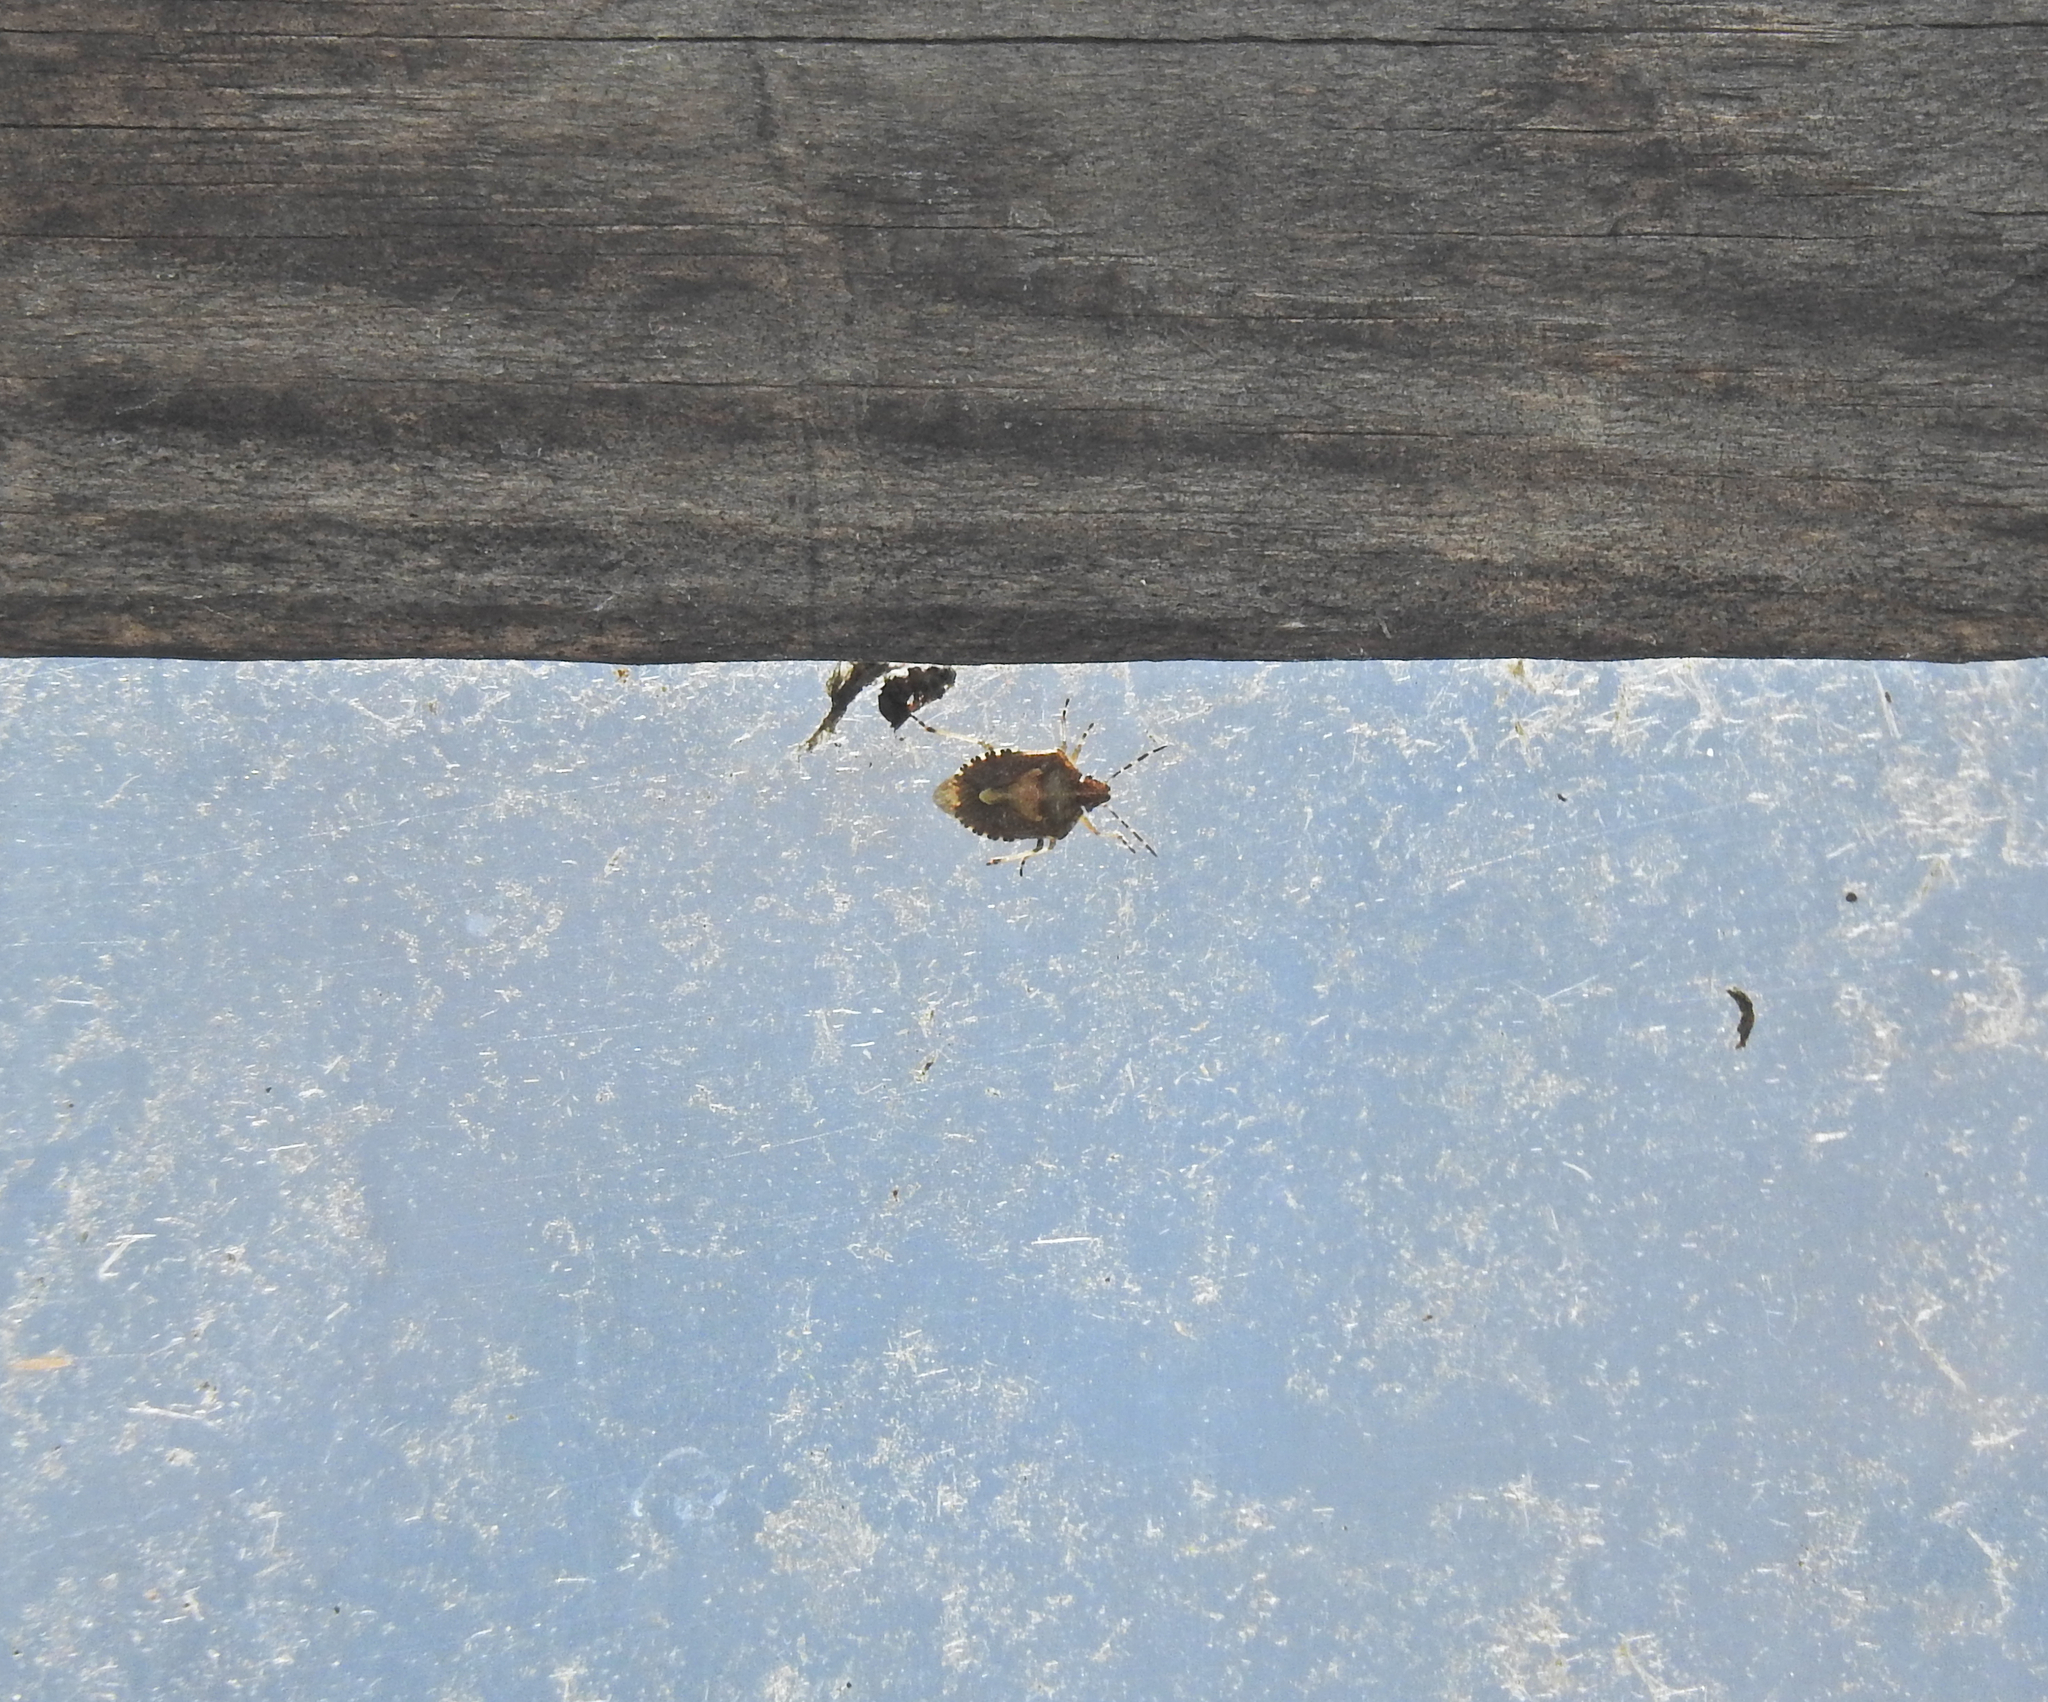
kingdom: Animalia
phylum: Arthropoda
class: Insecta
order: Hemiptera
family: Pentatomidae
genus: Dolycoris
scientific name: Dolycoris baccarum
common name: Sloe bug
